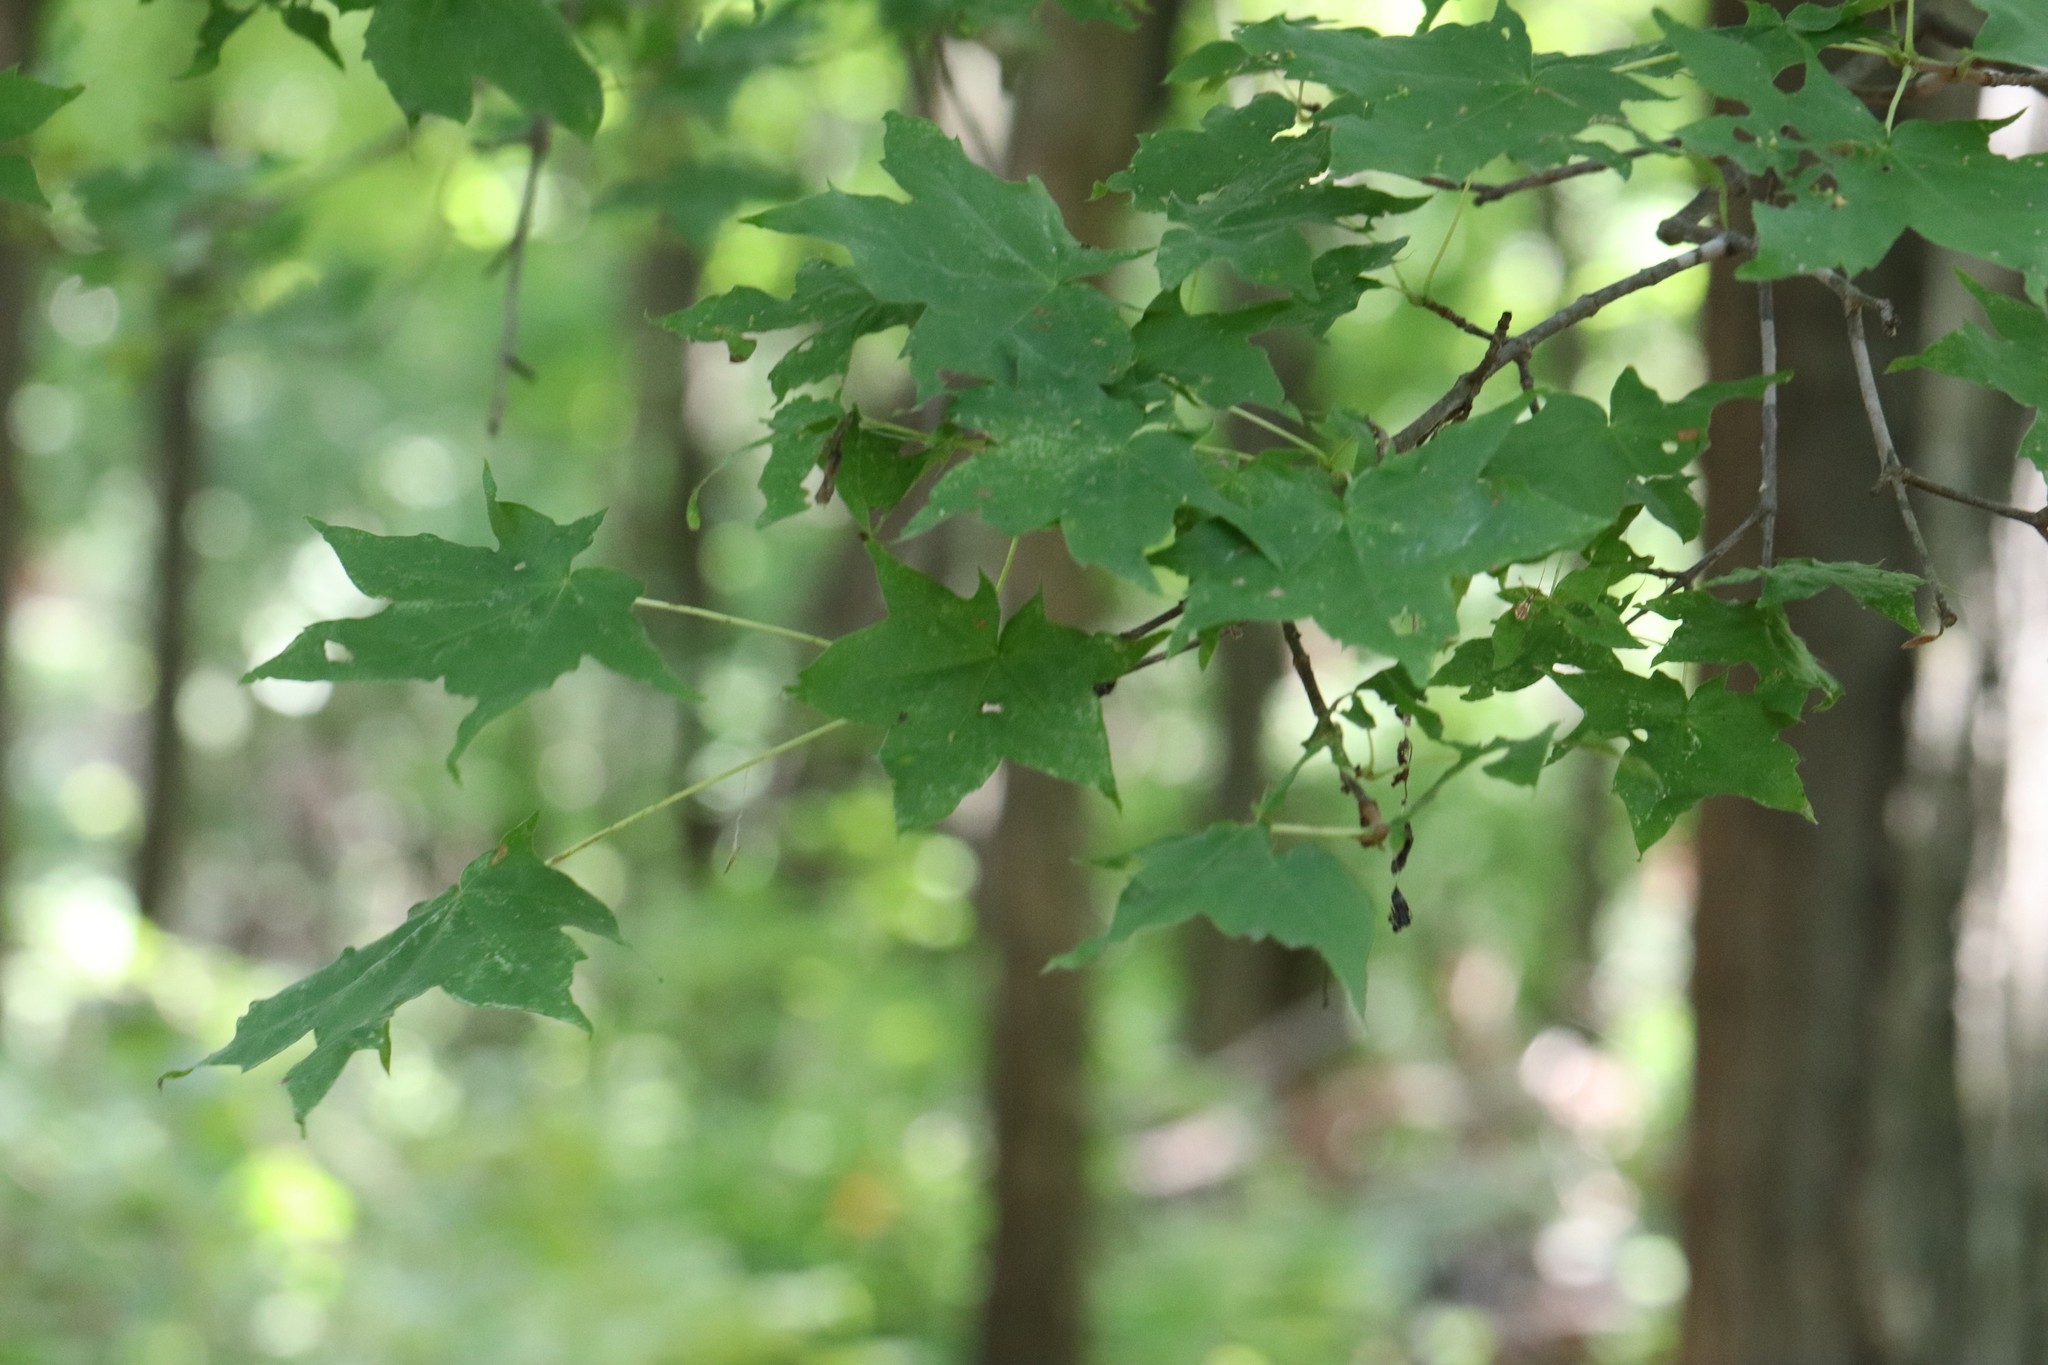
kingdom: Plantae
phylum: Tracheophyta
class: Magnoliopsida
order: Sapindales
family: Sapindaceae
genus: Acer
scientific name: Acer pictum
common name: The painted maple
